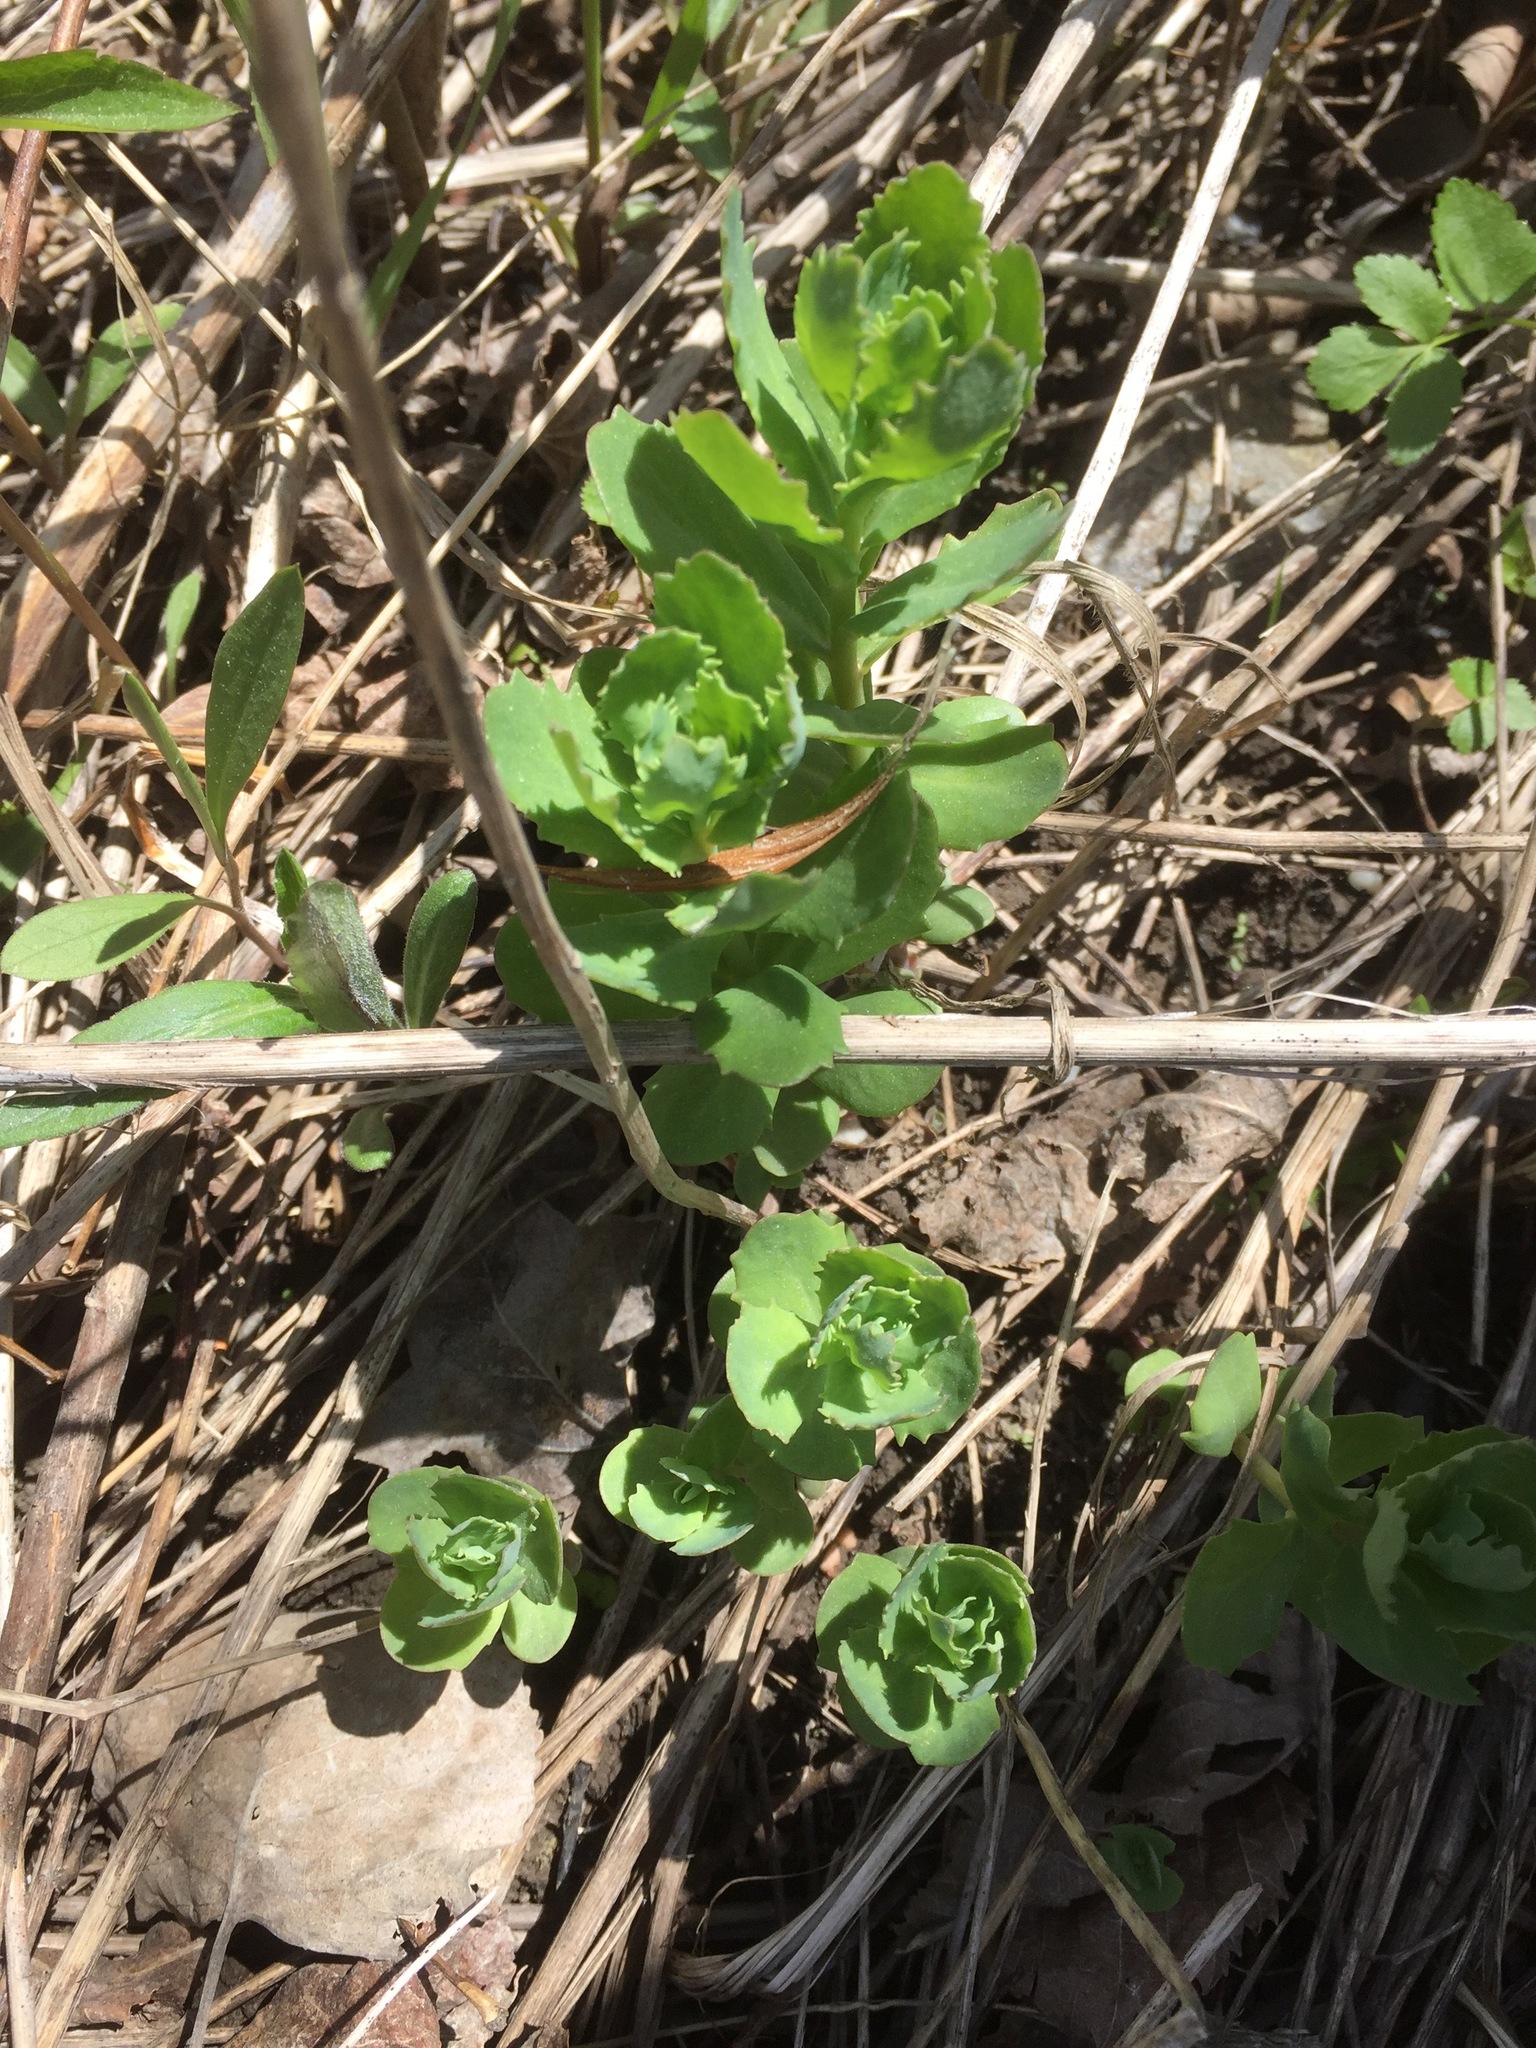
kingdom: Plantae
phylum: Tracheophyta
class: Magnoliopsida
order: Saxifragales
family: Crassulaceae
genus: Hylotelephium
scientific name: Hylotelephium telephium
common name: Live-forever
